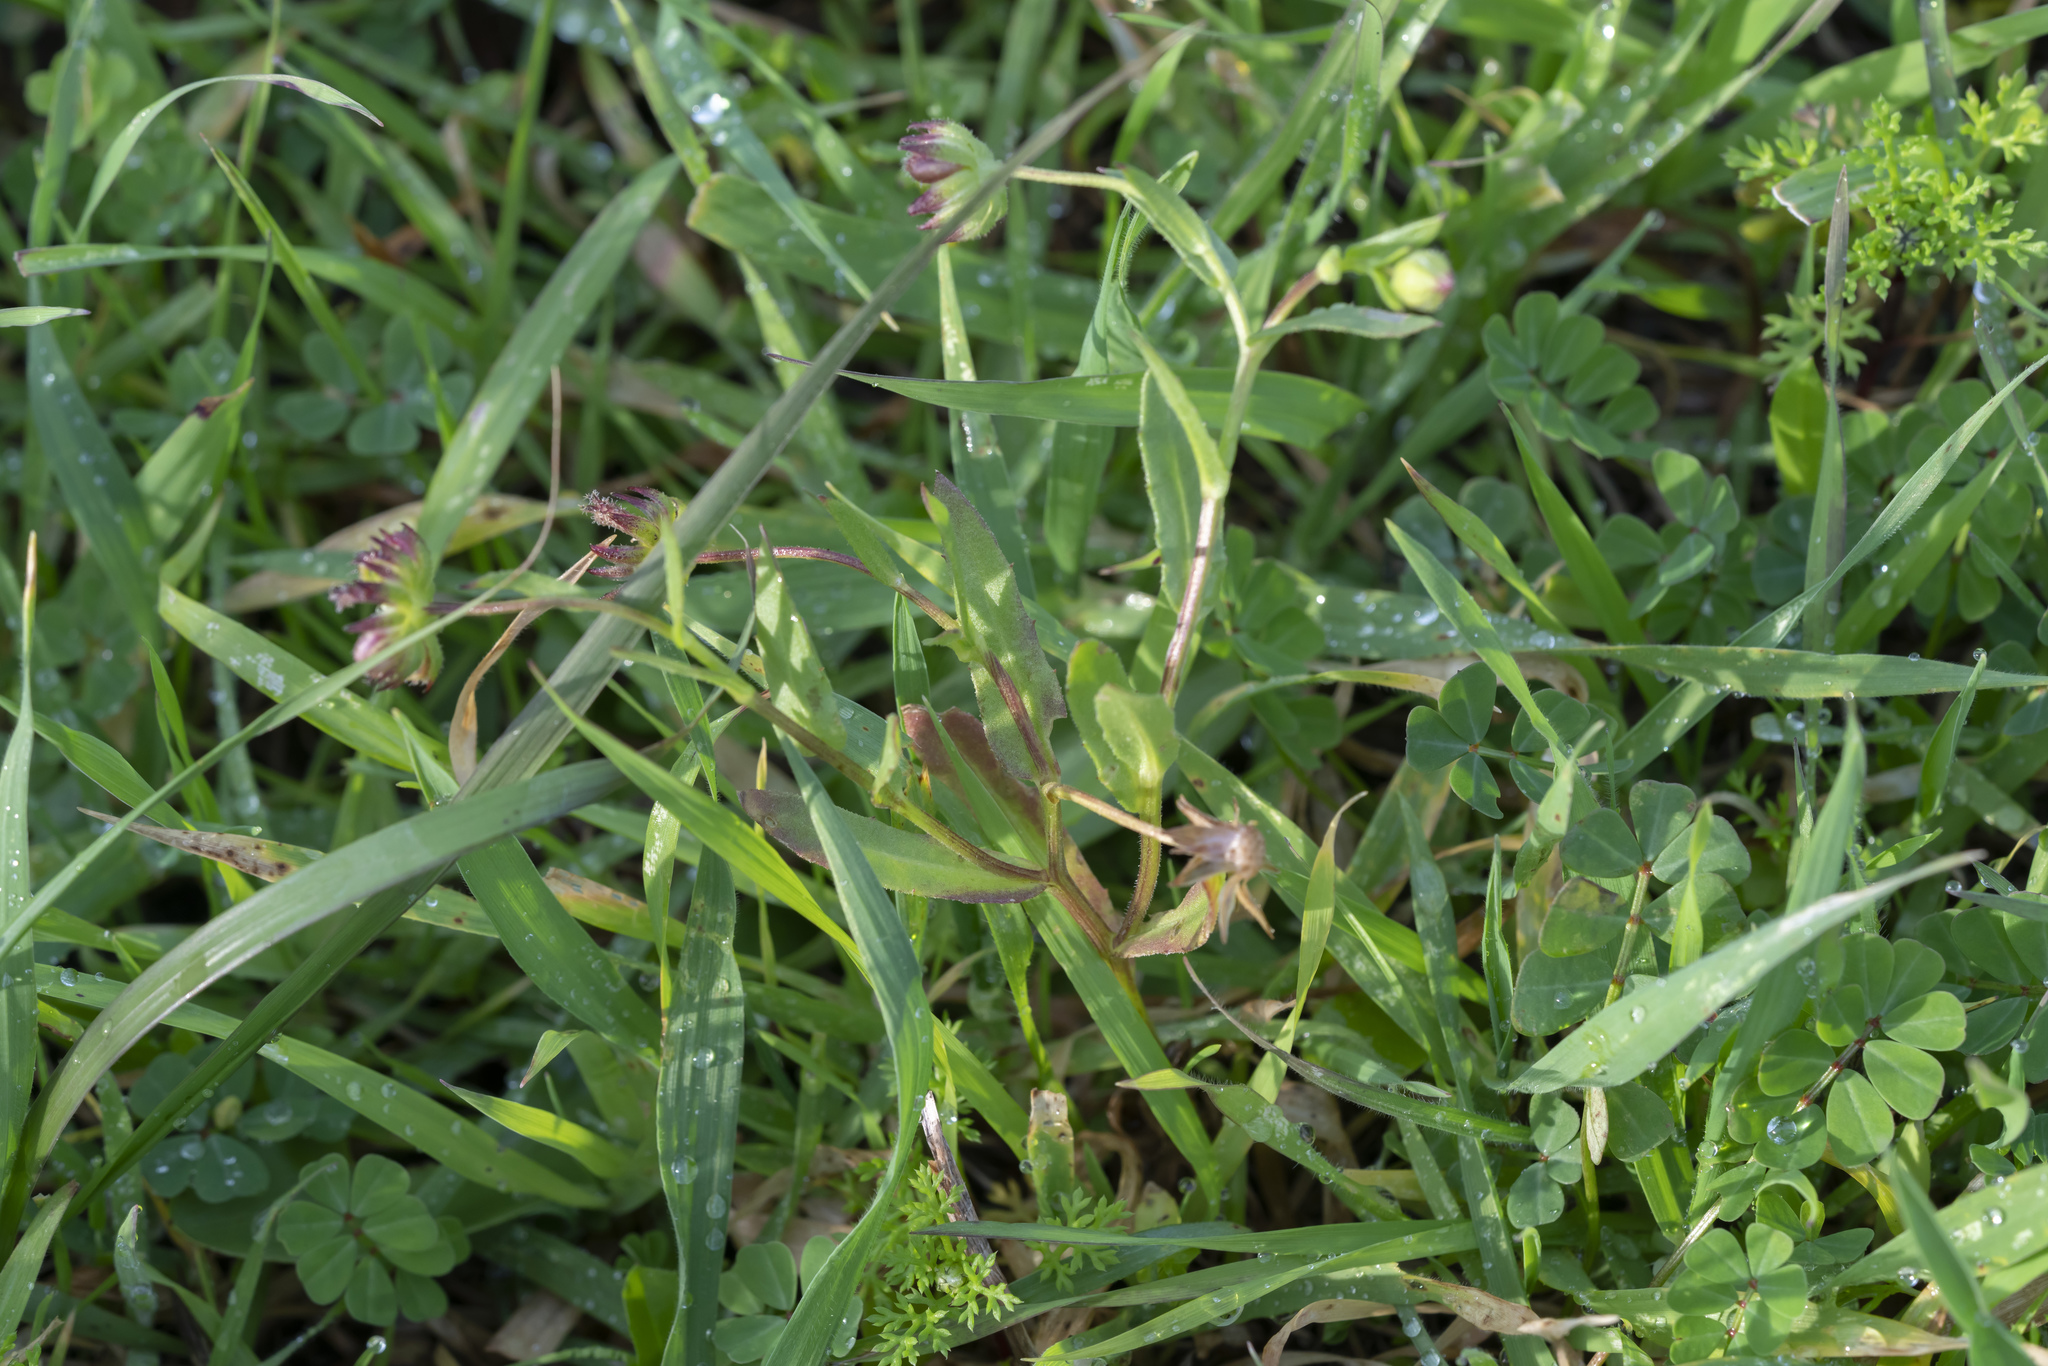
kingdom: Plantae
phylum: Tracheophyta
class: Magnoliopsida
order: Asterales
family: Asteraceae
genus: Calendula
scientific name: Calendula arvensis
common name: Field marigold
